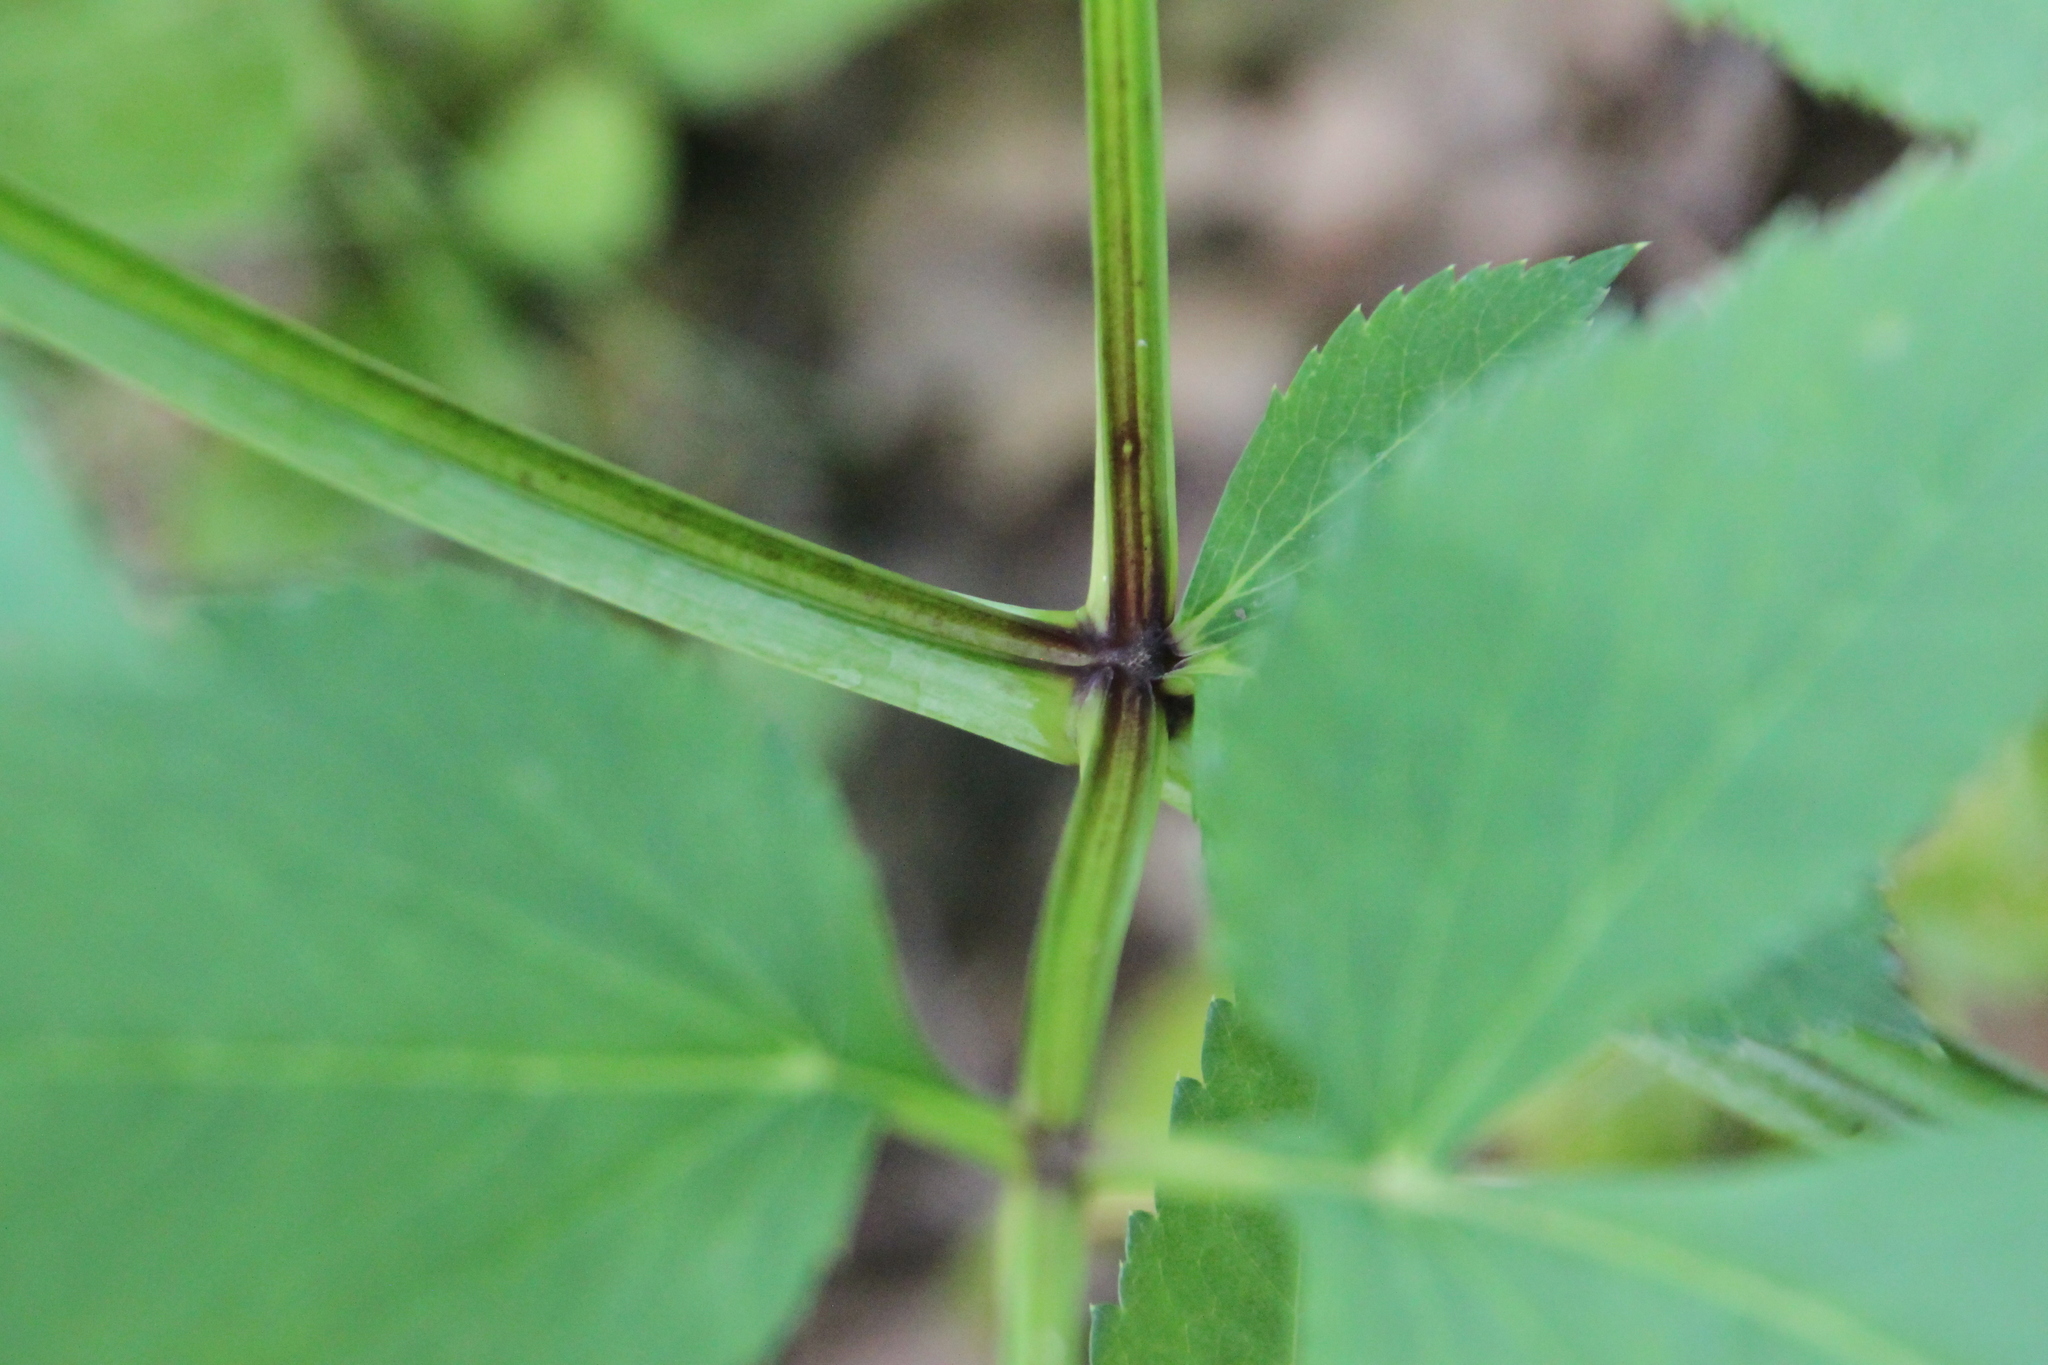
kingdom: Plantae
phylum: Tracheophyta
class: Magnoliopsida
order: Apiales
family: Apiaceae
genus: Angelica
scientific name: Angelica sylvestris
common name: Wild angelica
